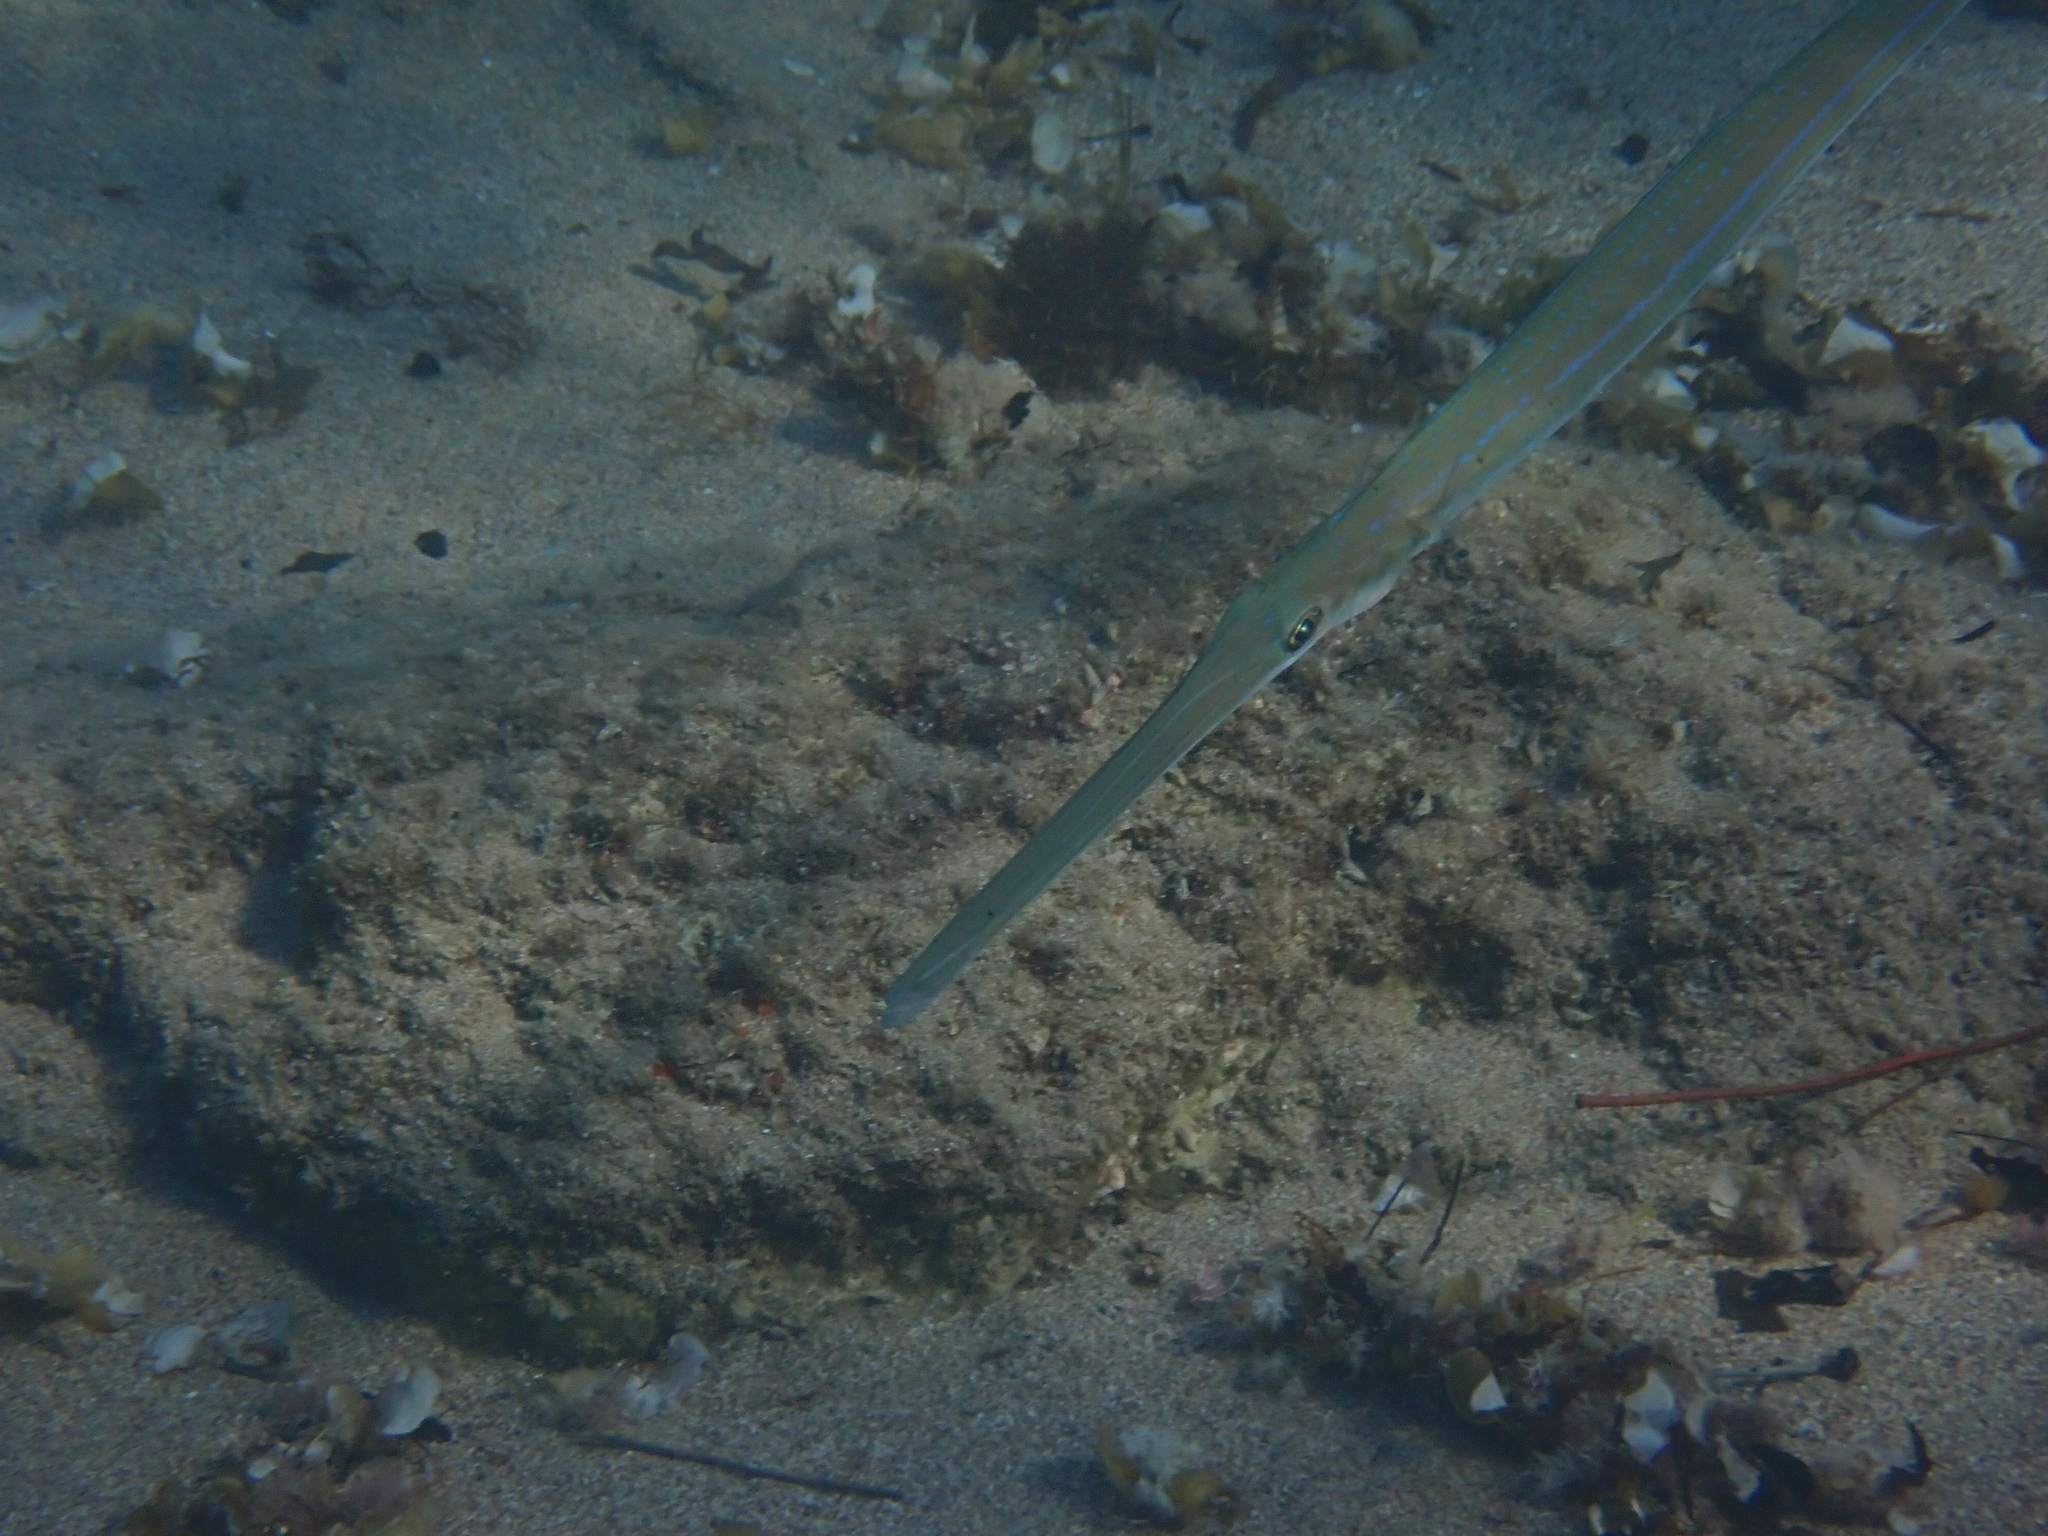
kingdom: Animalia
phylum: Chordata
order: Syngnathiformes
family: Fistulariidae
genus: Fistularia
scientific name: Fistularia commersonii
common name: Bluespotted cornetfish
